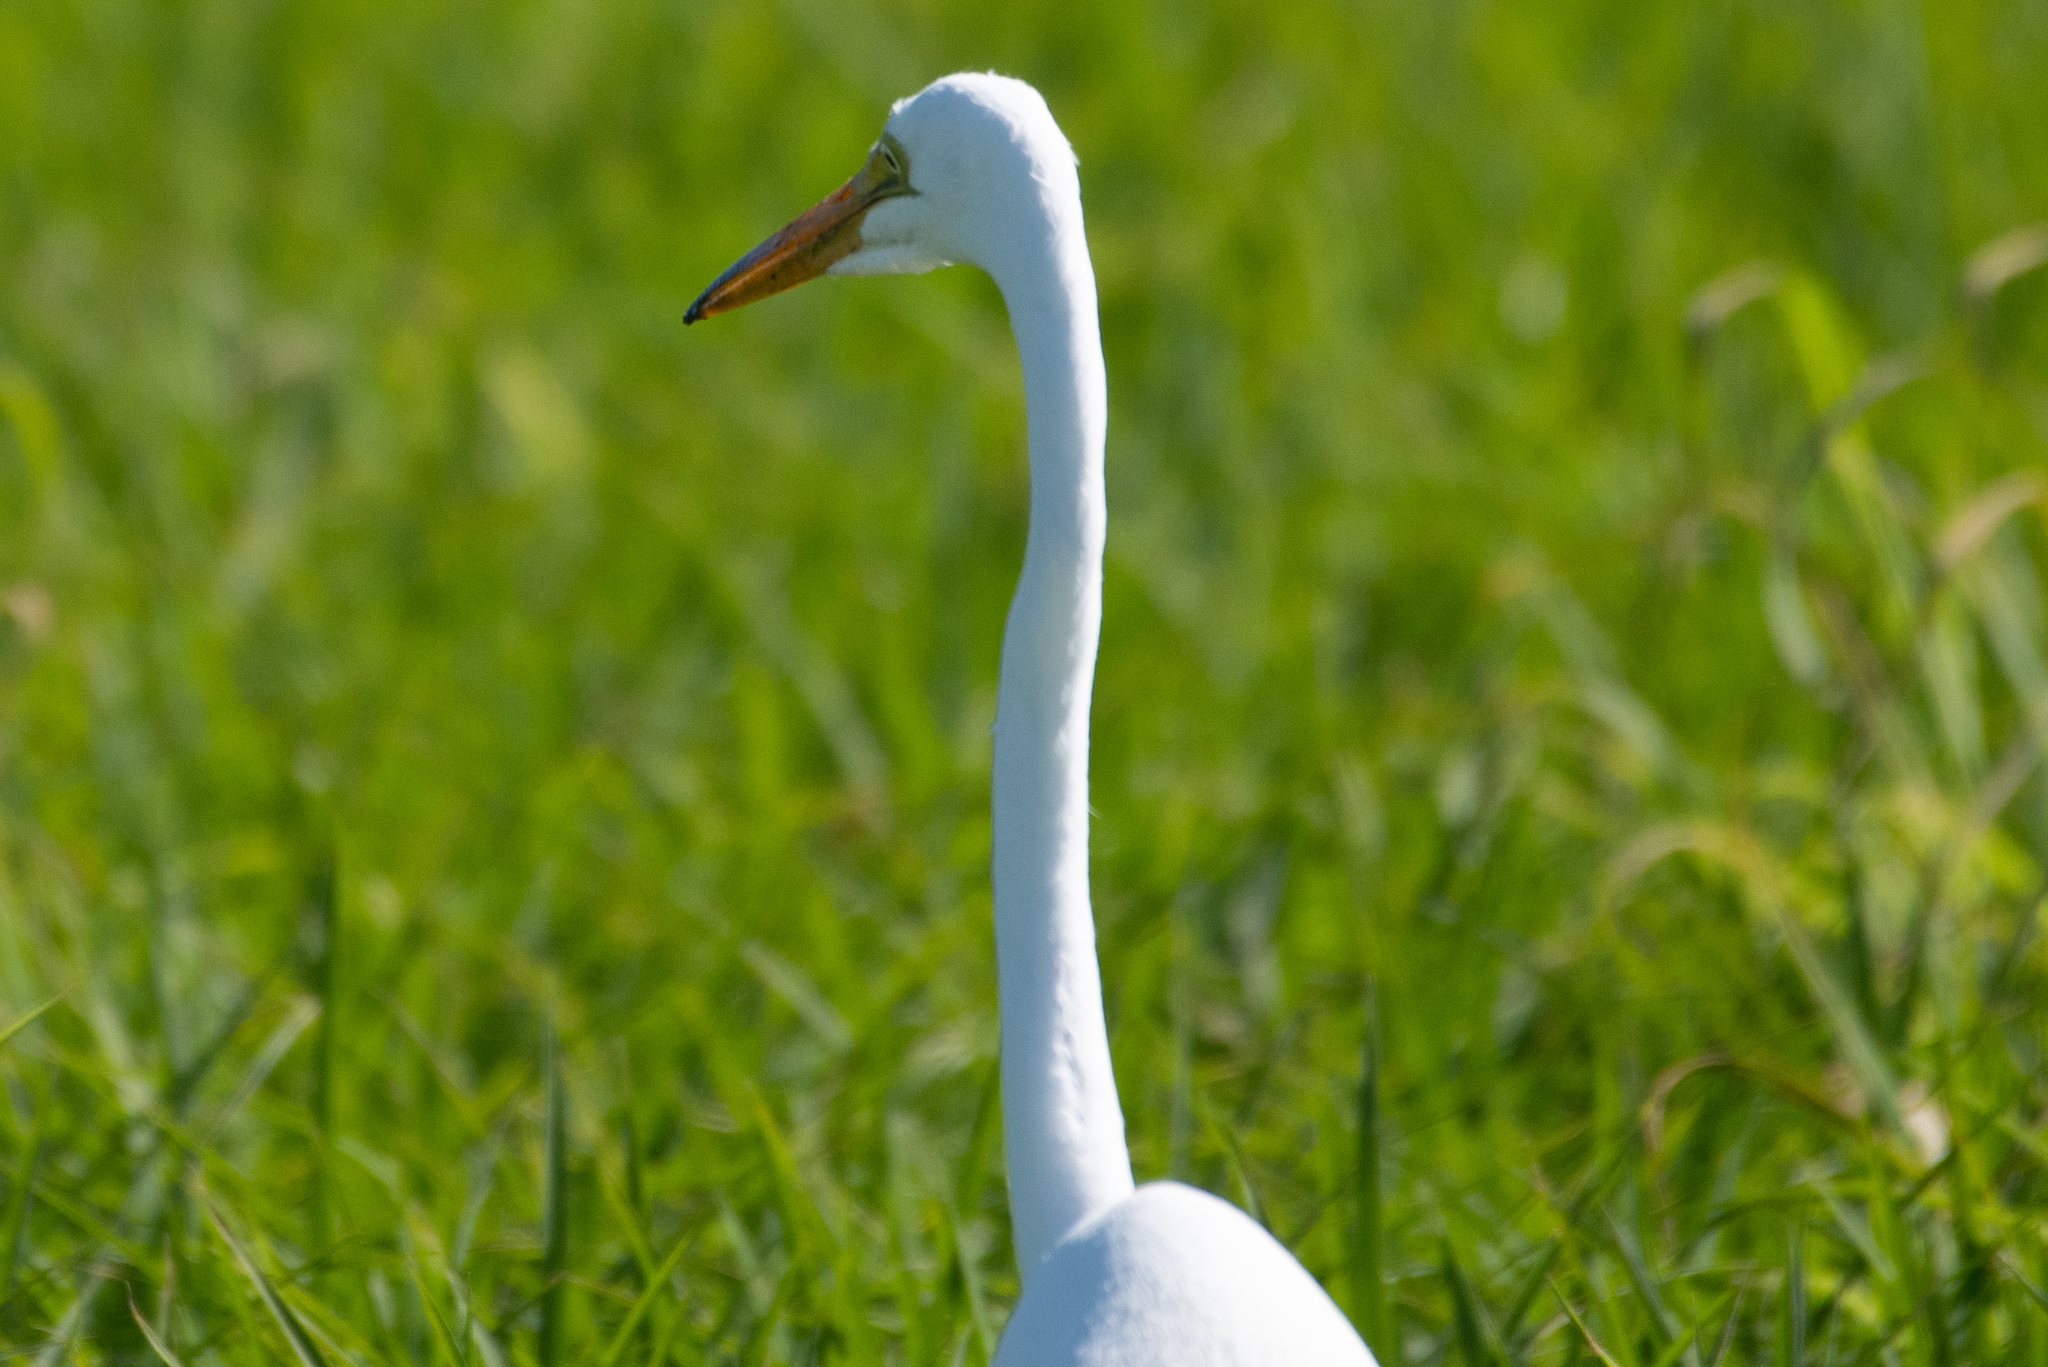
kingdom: Animalia
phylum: Chordata
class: Aves
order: Pelecaniformes
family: Ardeidae
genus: Ardea
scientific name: Ardea alba
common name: Great egret
